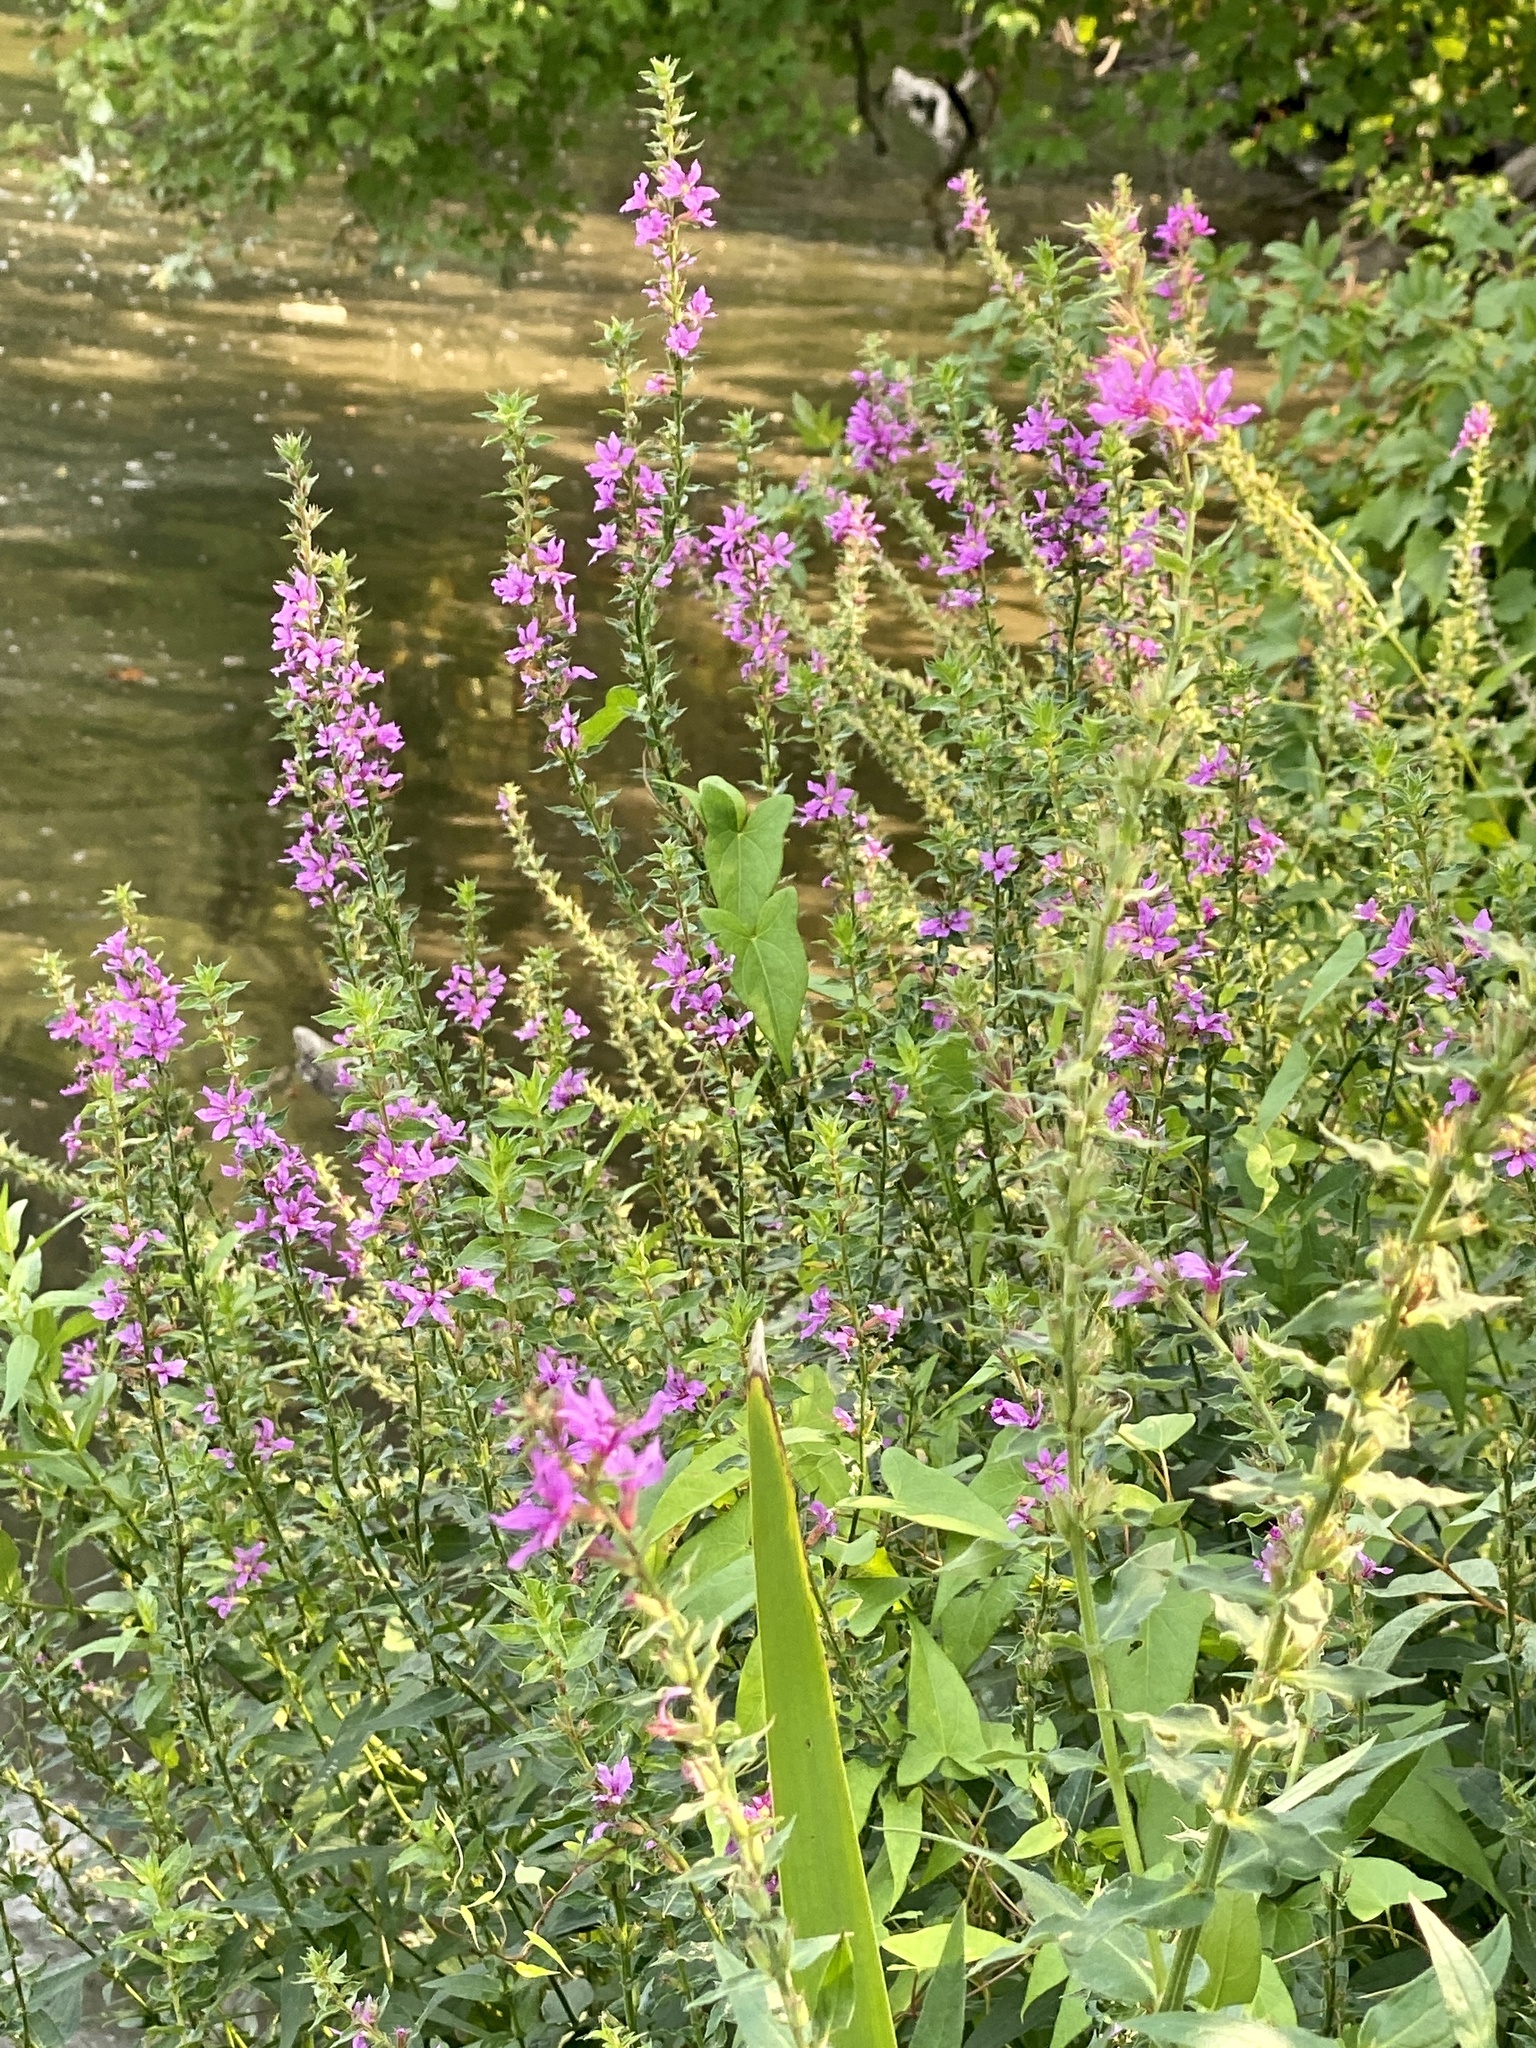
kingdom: Plantae
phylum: Tracheophyta
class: Magnoliopsida
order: Myrtales
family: Lythraceae
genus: Lythrum
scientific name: Lythrum salicaria
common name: Purple loosestrife
